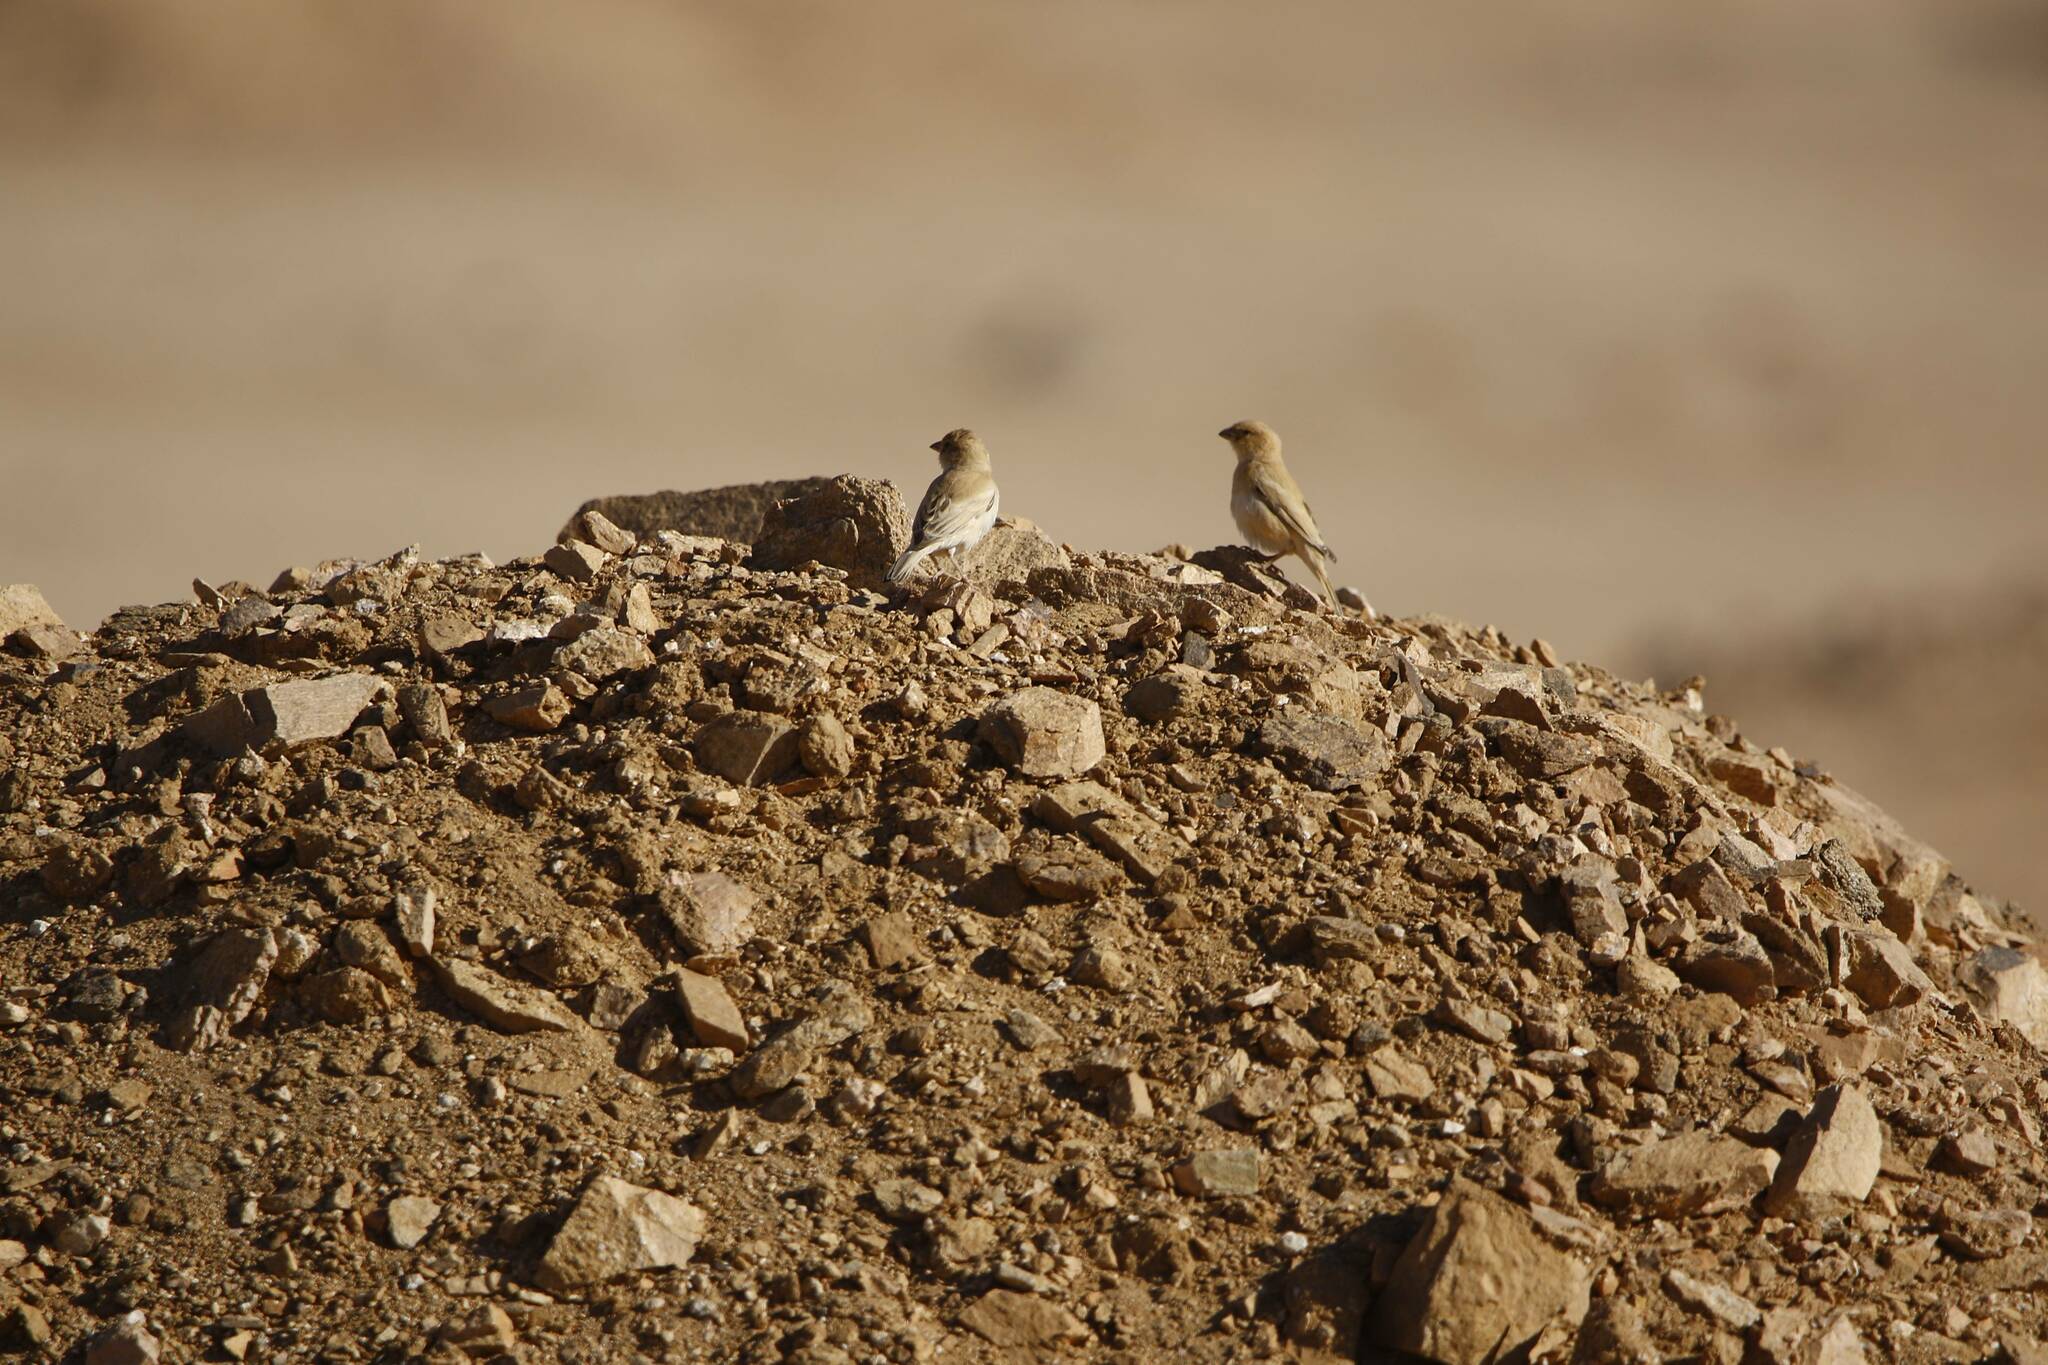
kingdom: Animalia
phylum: Chordata
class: Aves
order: Passeriformes
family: Passeridae
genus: Passer
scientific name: Passer luteus
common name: Sudan golden sparrow
